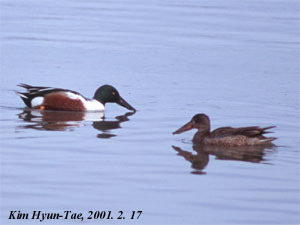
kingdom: Animalia
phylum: Chordata
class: Aves
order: Anseriformes
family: Anatidae
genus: Spatula
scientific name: Spatula clypeata
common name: Northern shoveler
